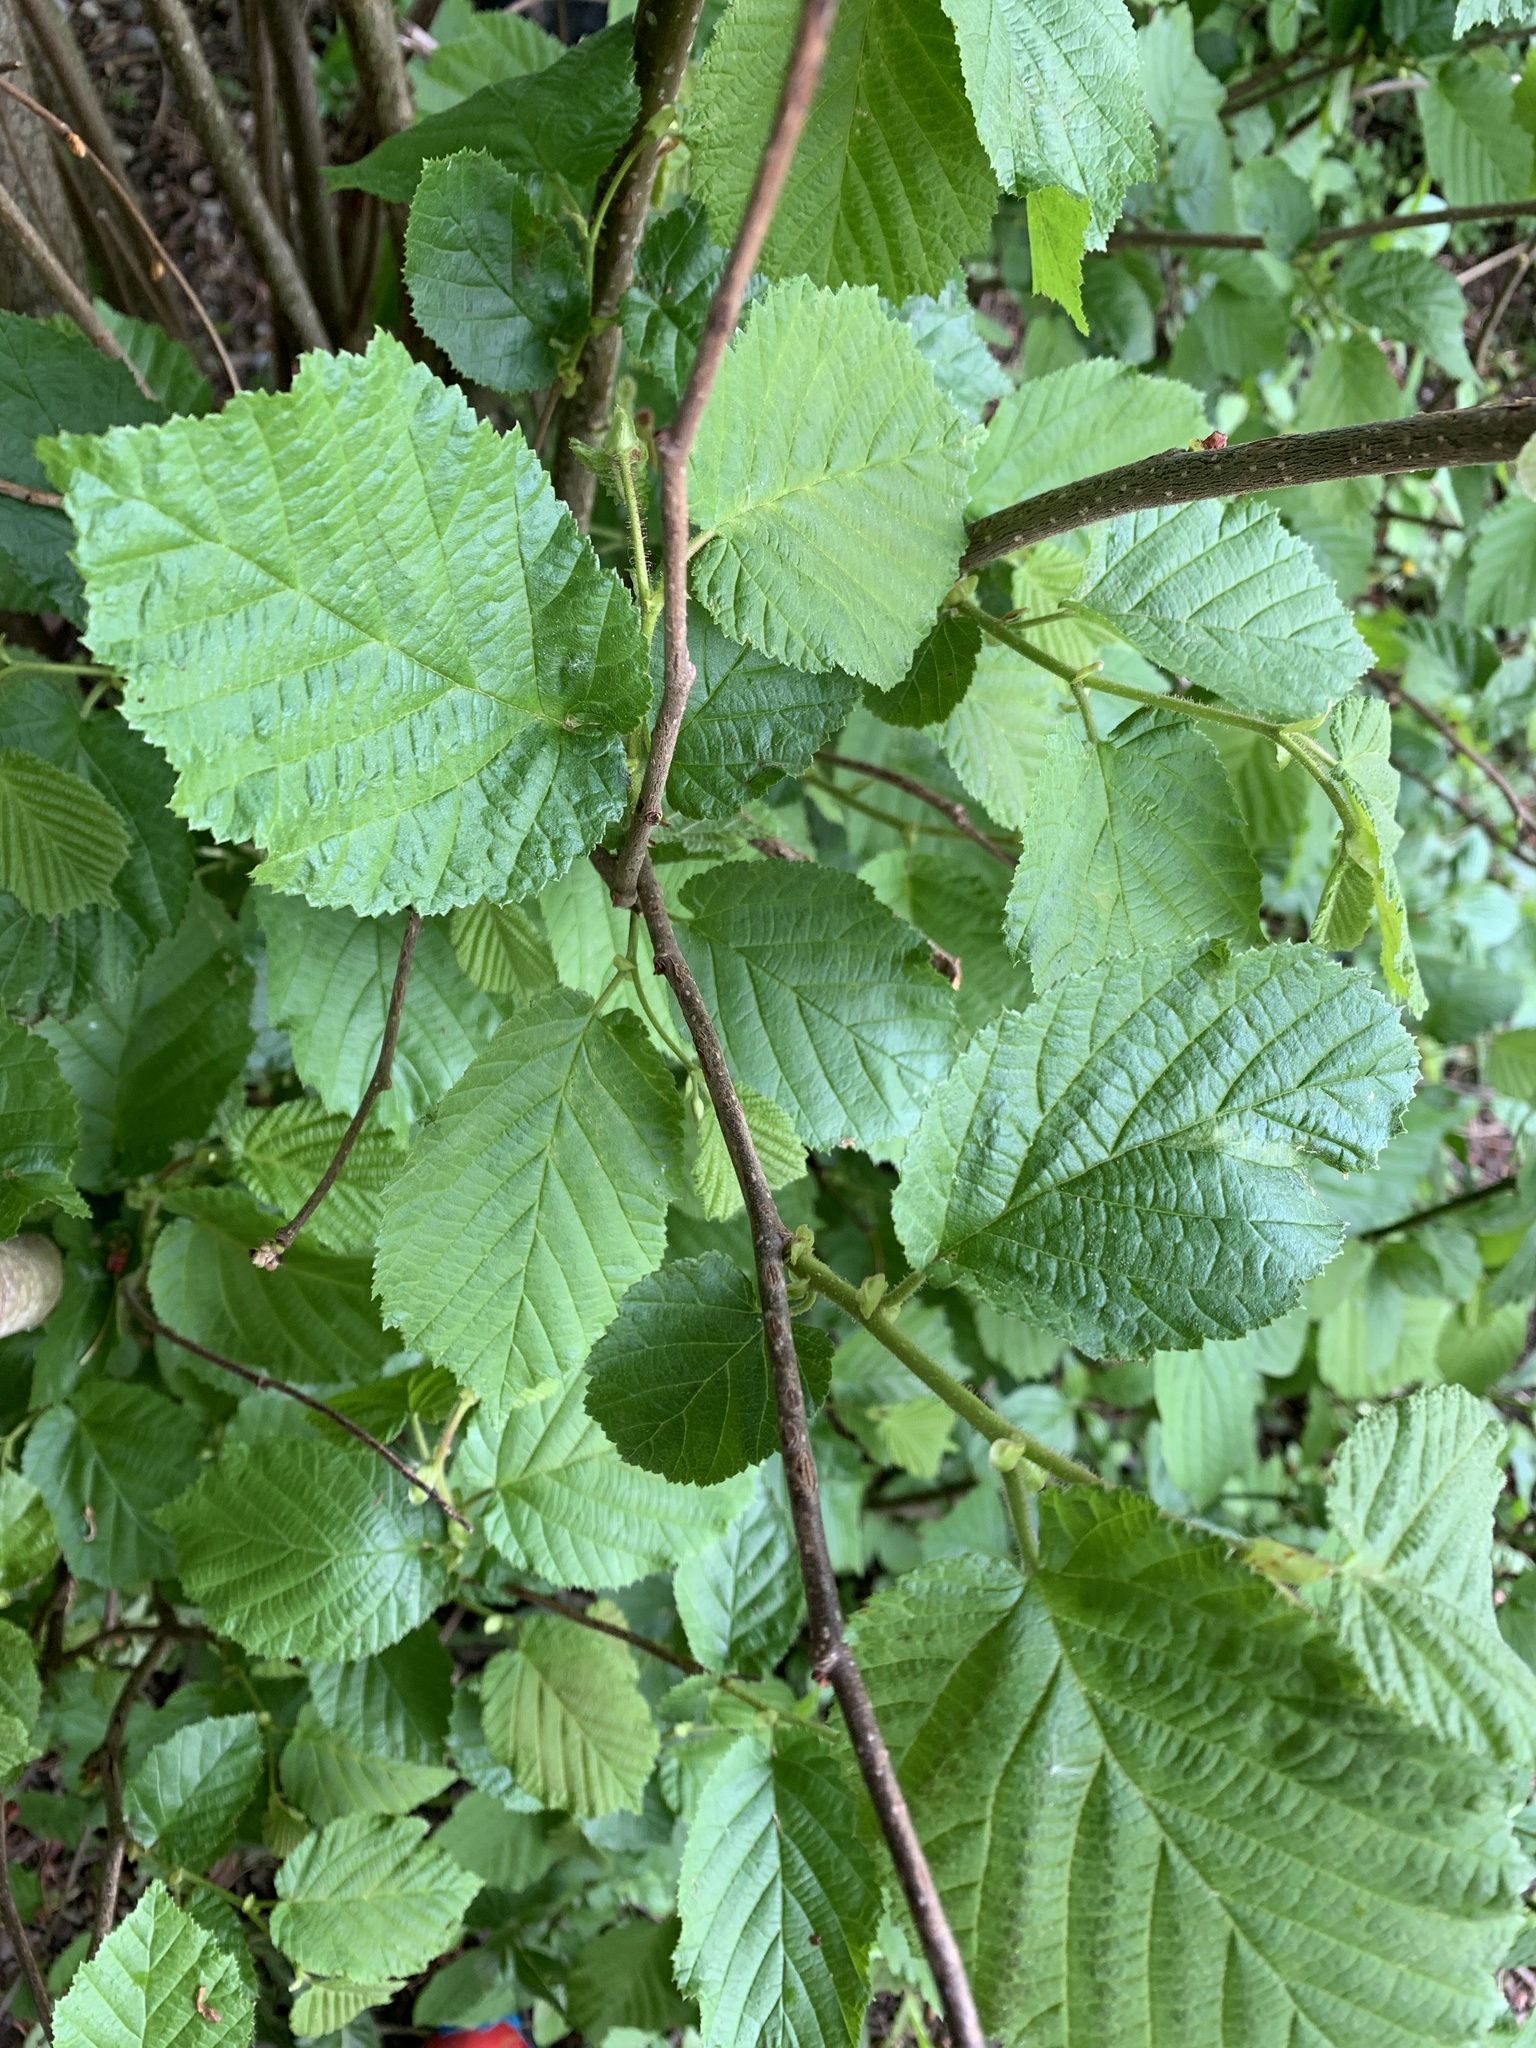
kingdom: Plantae
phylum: Tracheophyta
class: Magnoliopsida
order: Fagales
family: Betulaceae
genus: Corylus
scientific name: Corylus avellana
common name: European hazel
